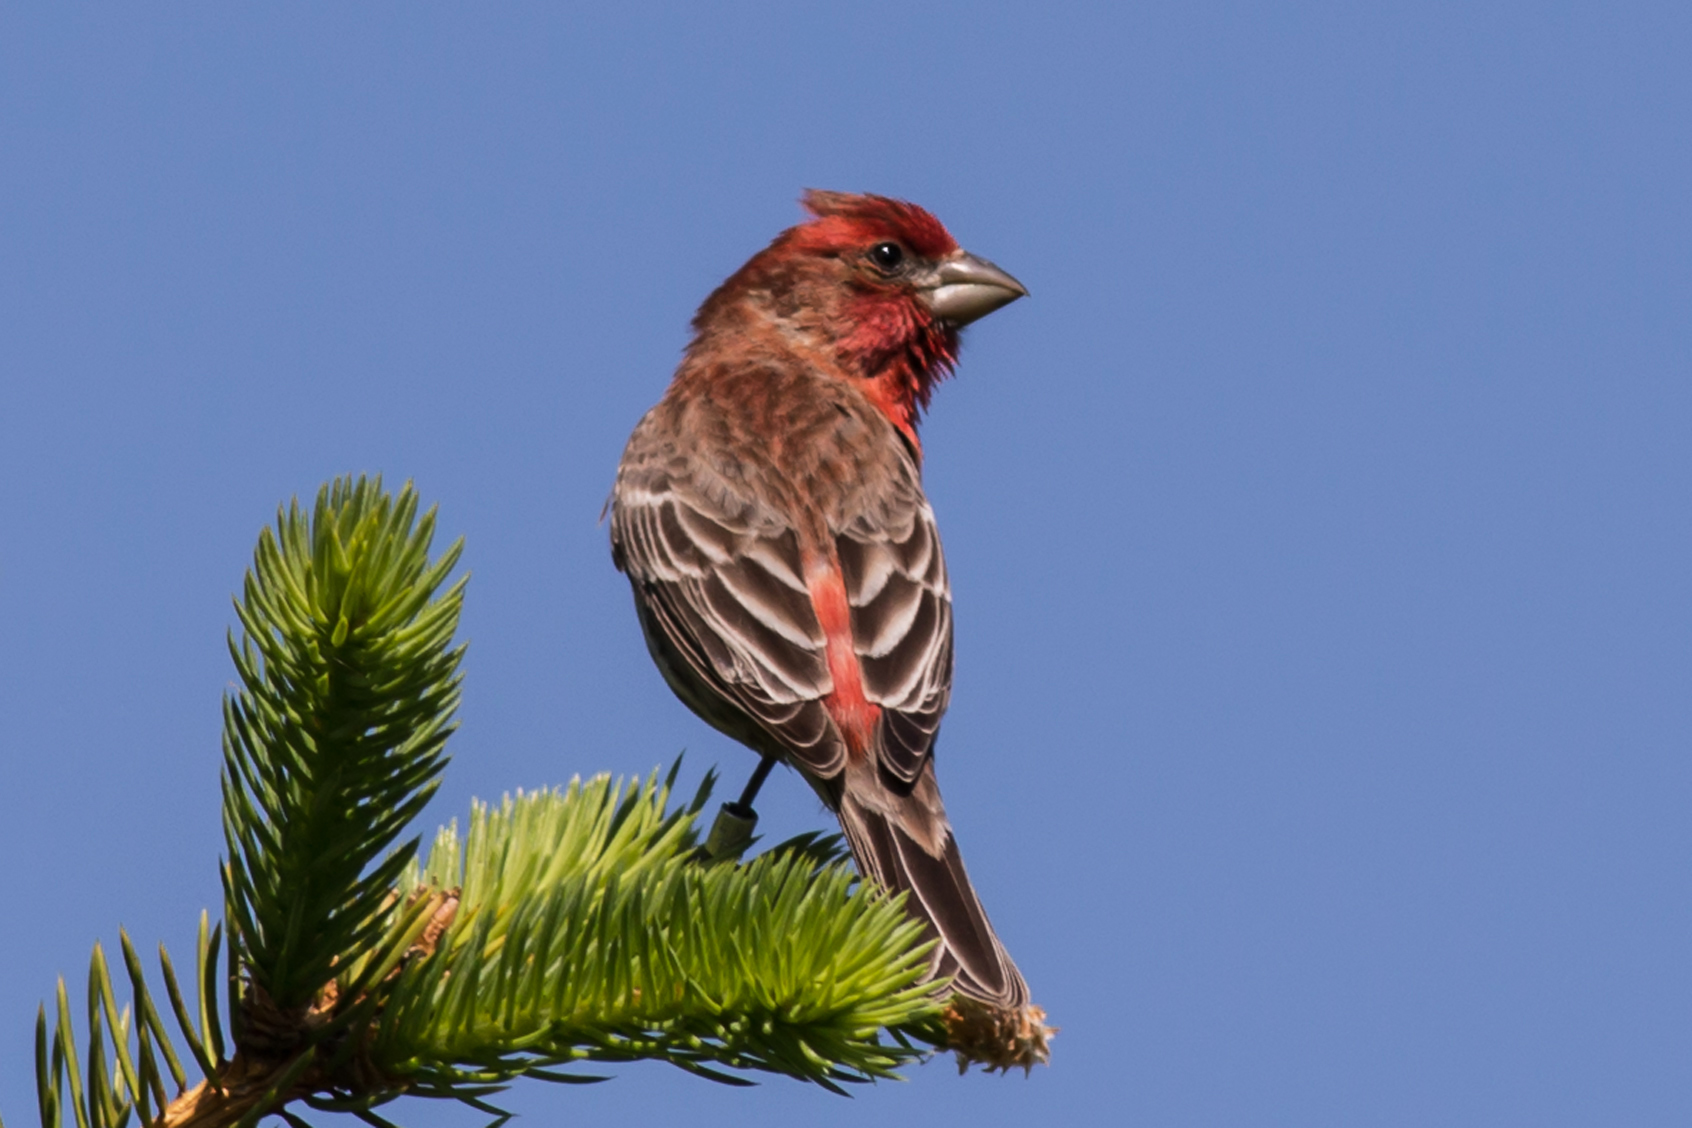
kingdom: Animalia
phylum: Chordata
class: Aves
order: Passeriformes
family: Fringillidae
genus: Haemorhous
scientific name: Haemorhous mexicanus
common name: House finch
